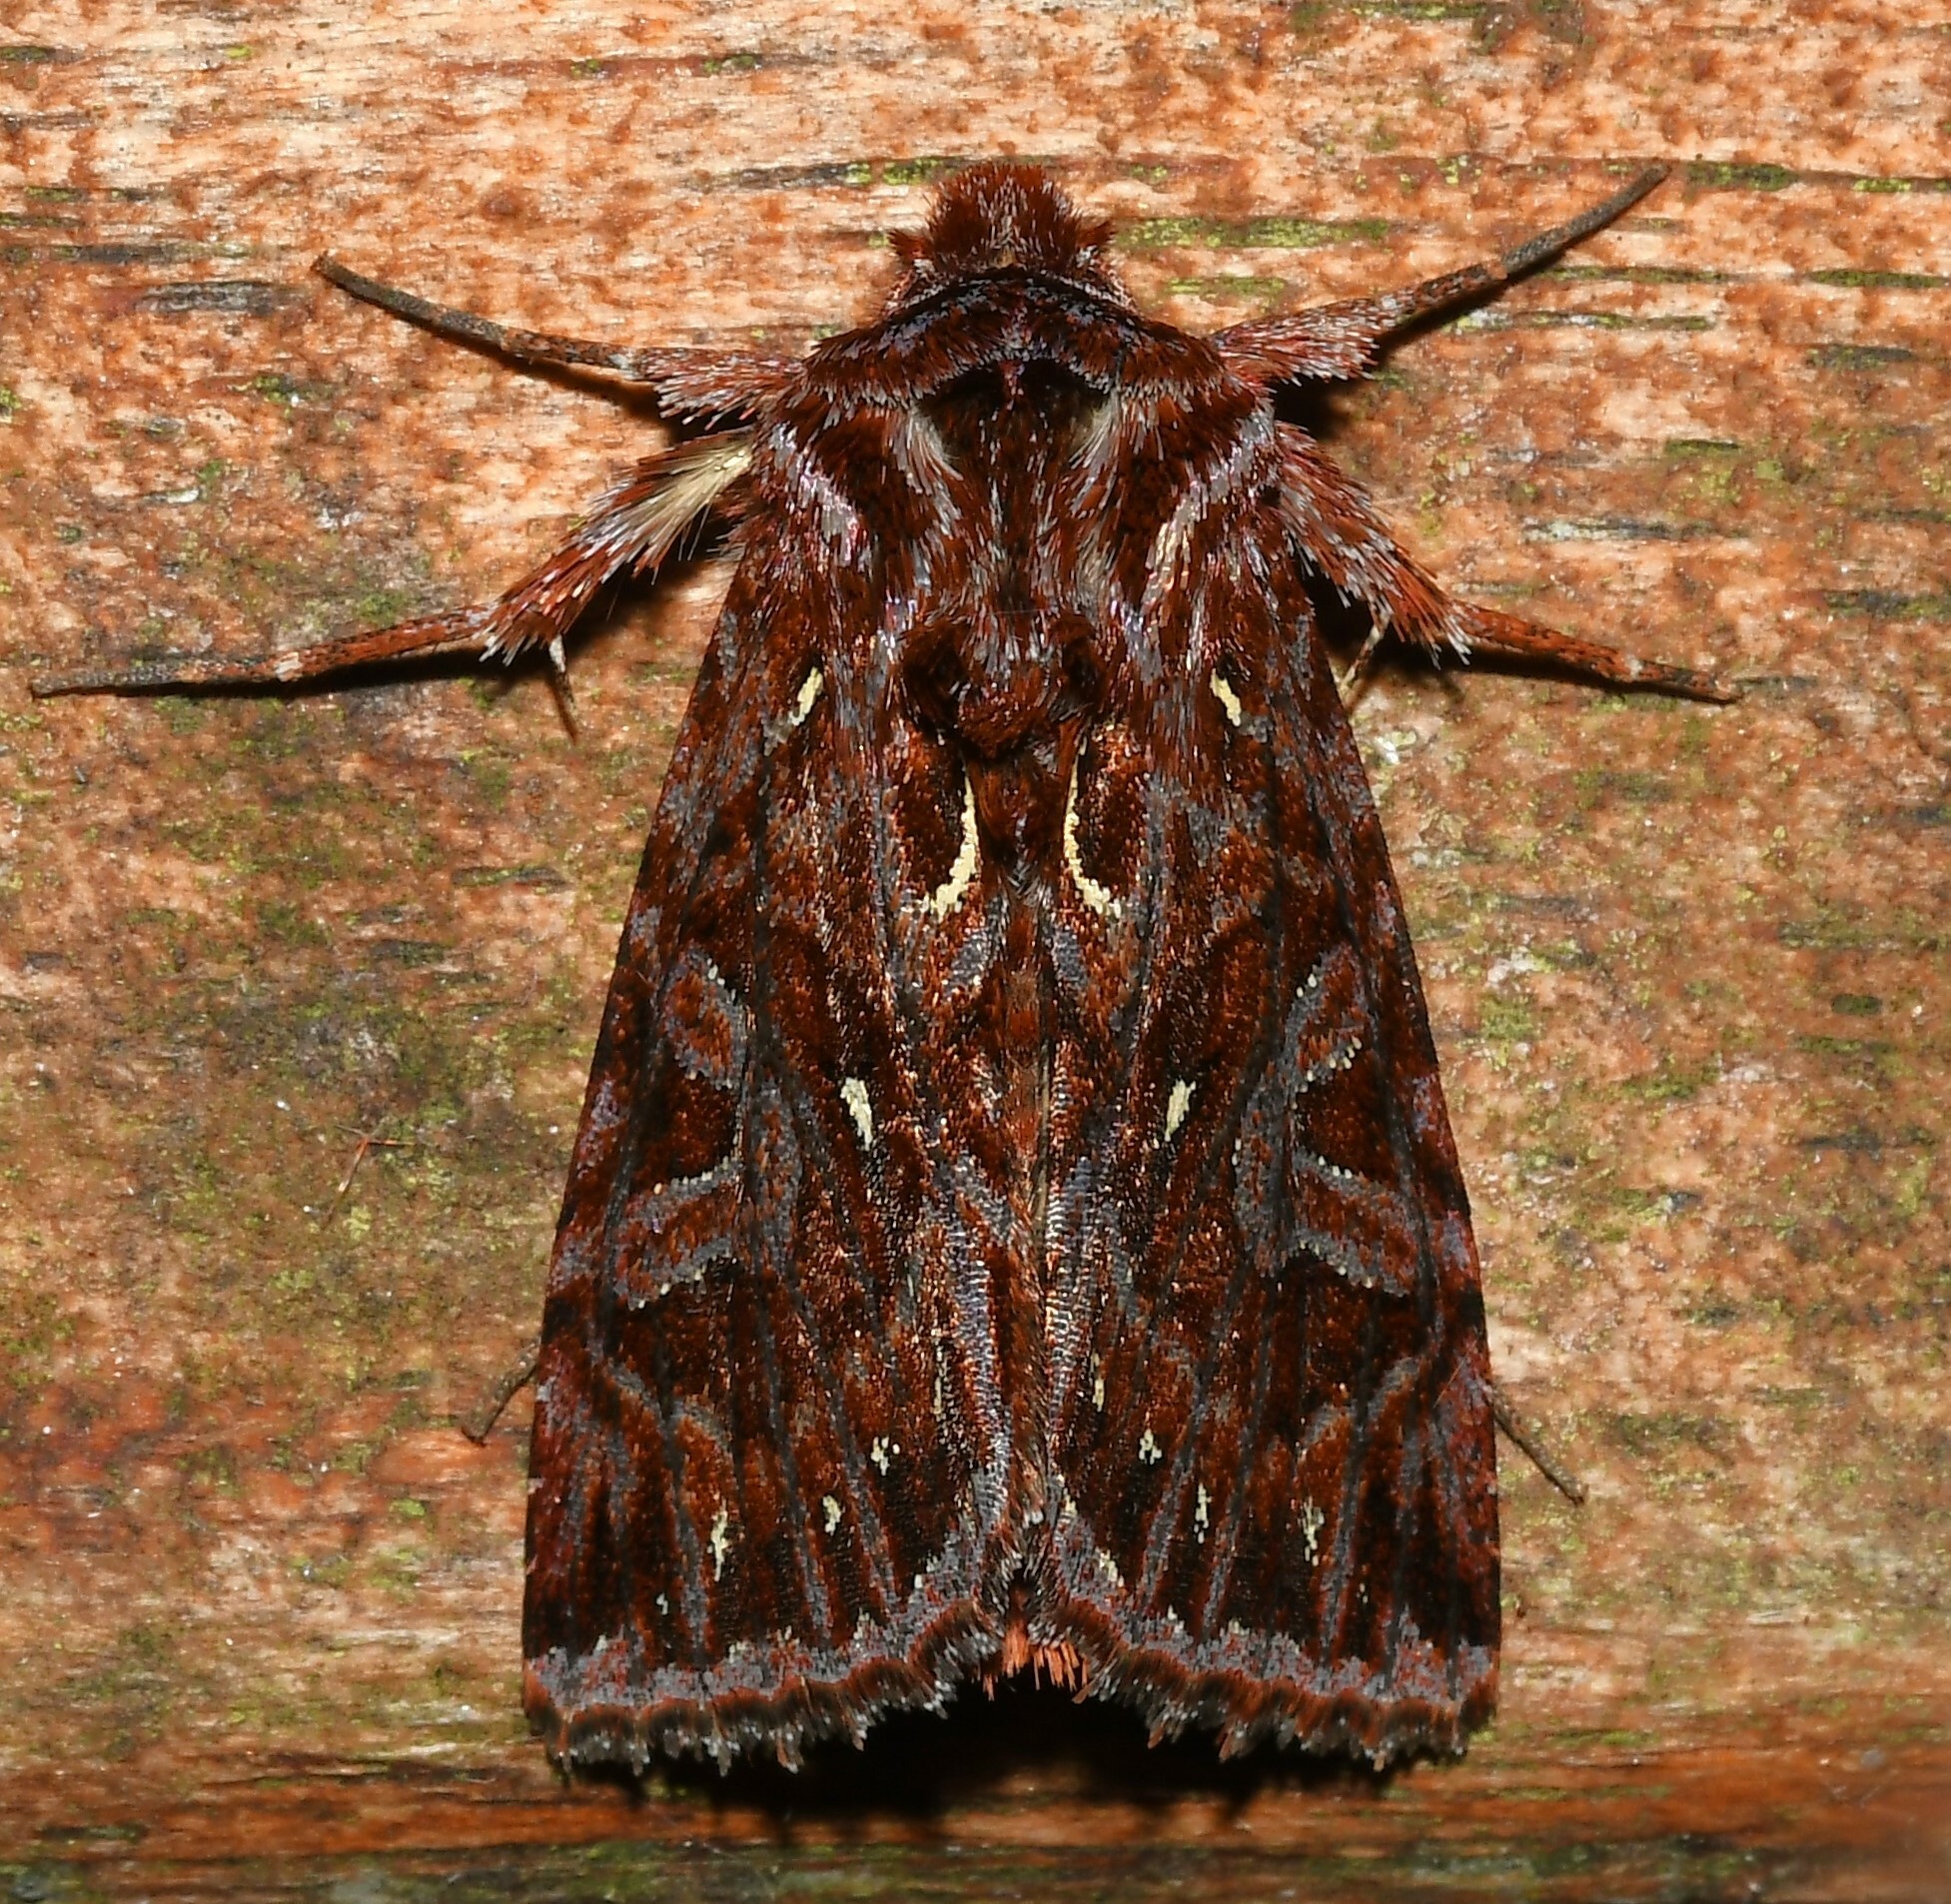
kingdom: Animalia
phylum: Arthropoda
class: Insecta
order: Lepidoptera
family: Noctuidae
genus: Dargida
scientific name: Dargida
